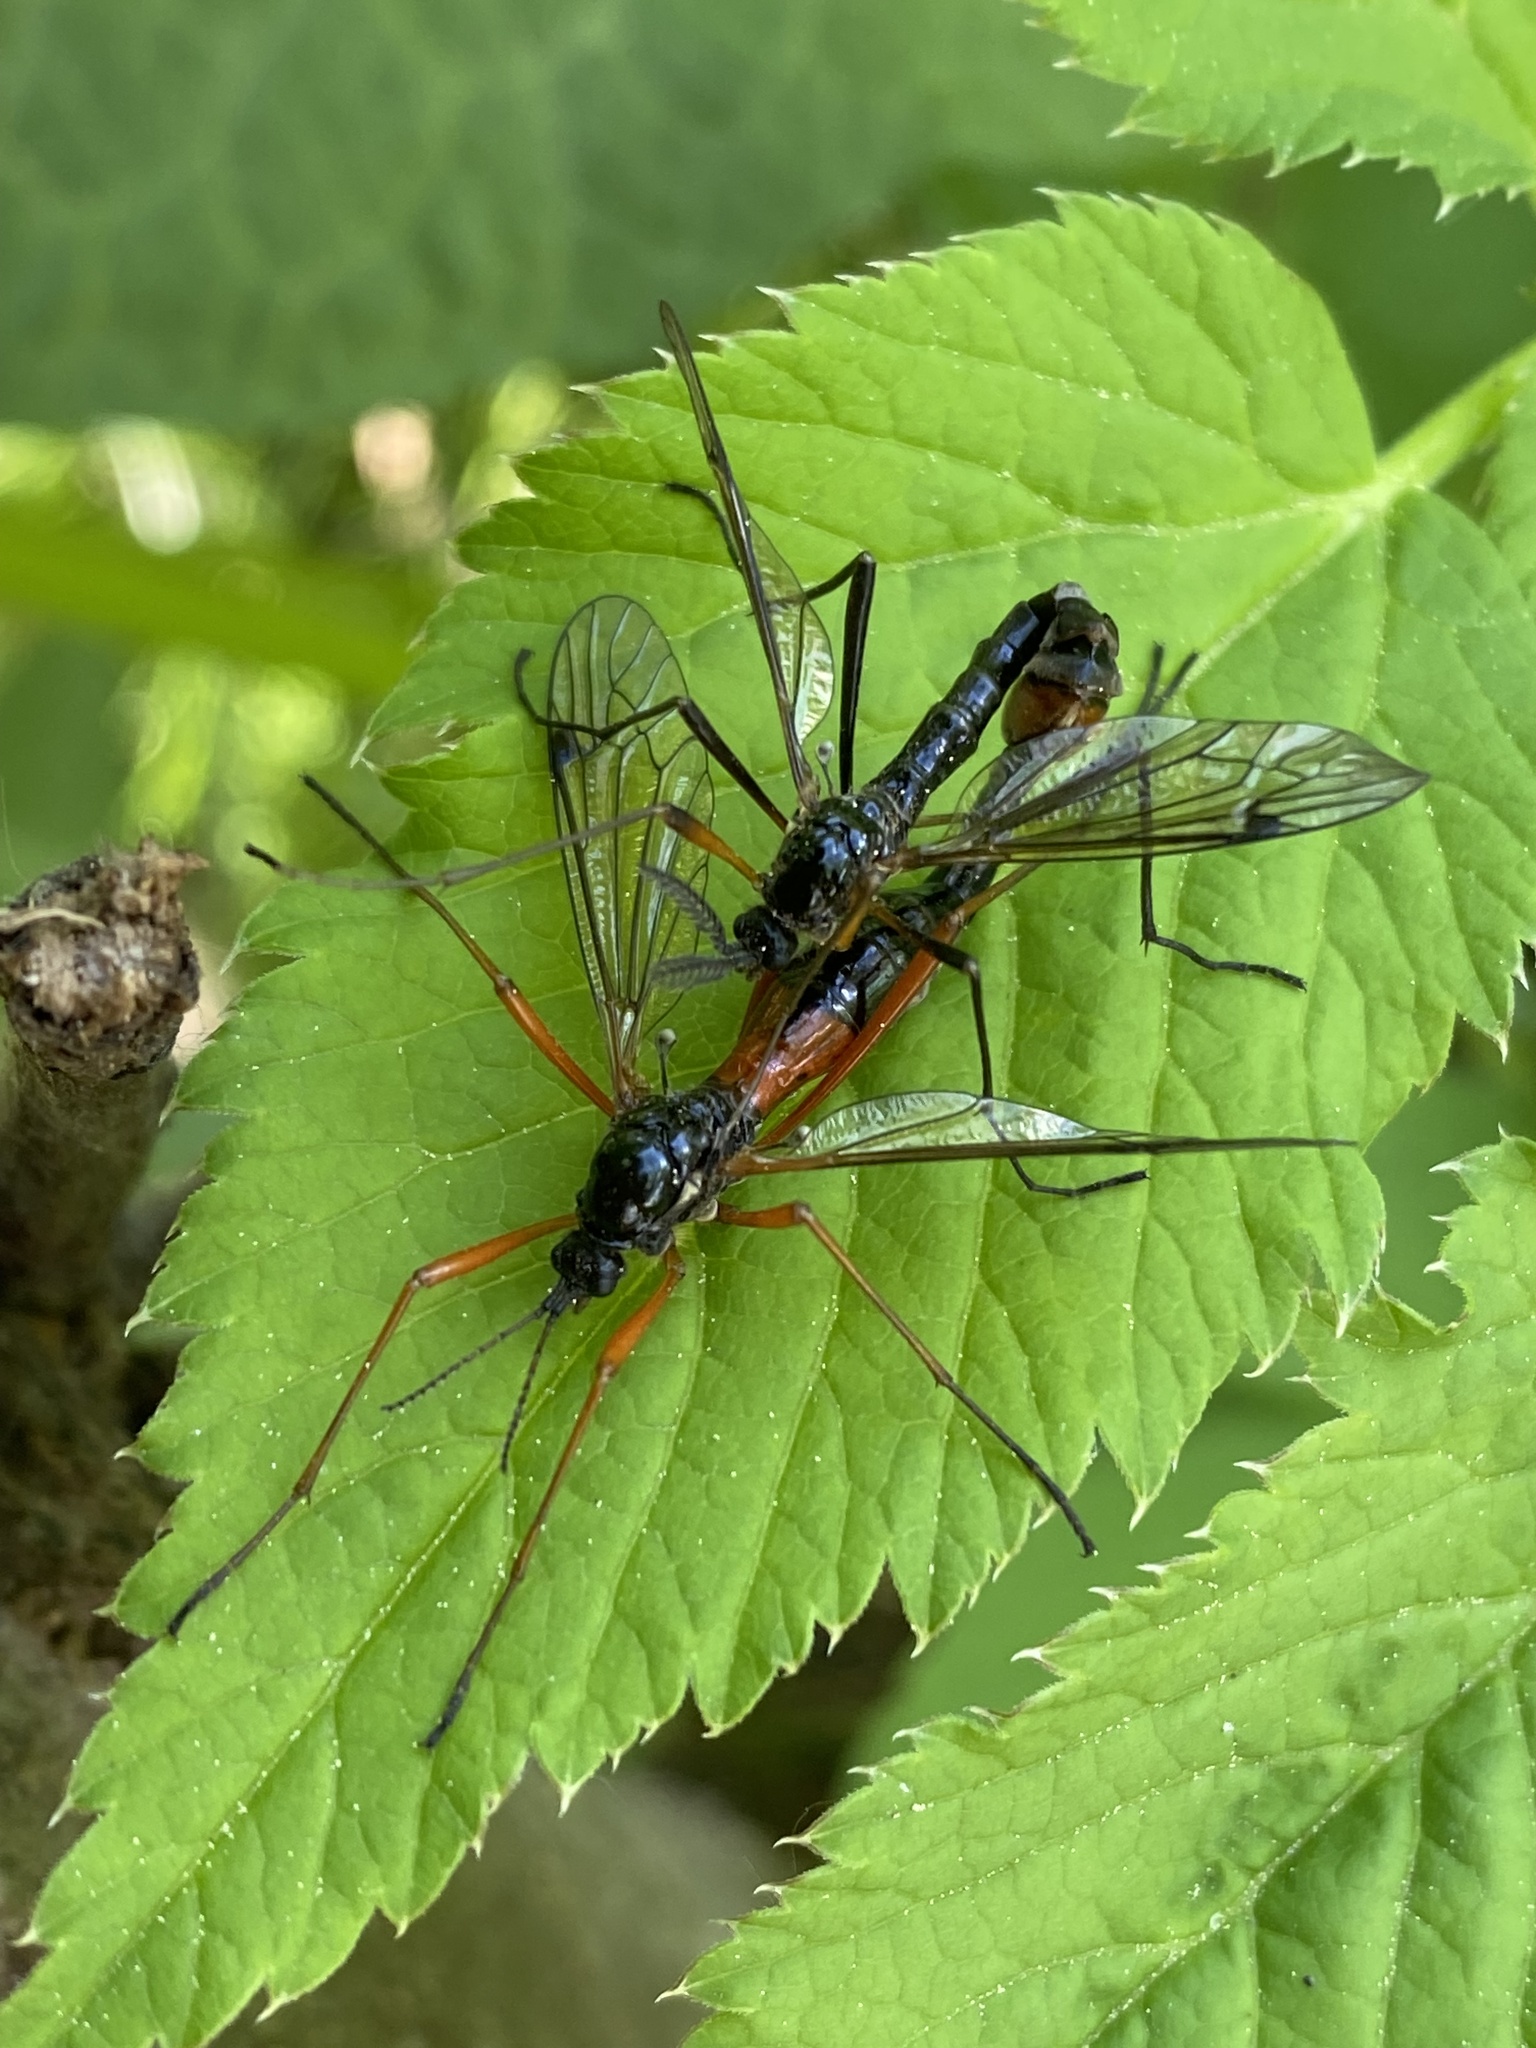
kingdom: Animalia
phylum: Arthropoda
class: Insecta
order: Diptera
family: Tipulidae
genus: Tanyptera
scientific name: Tanyptera atrata
